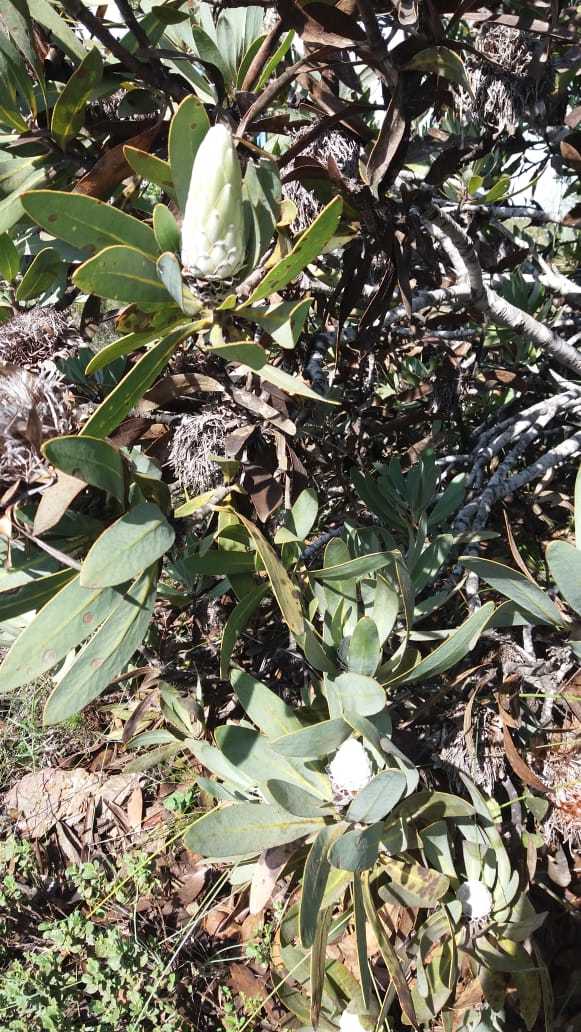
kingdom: Plantae
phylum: Tracheophyta
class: Magnoliopsida
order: Proteales
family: Proteaceae
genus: Protea
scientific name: Protea lorifolia
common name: Strap-leaved protea
